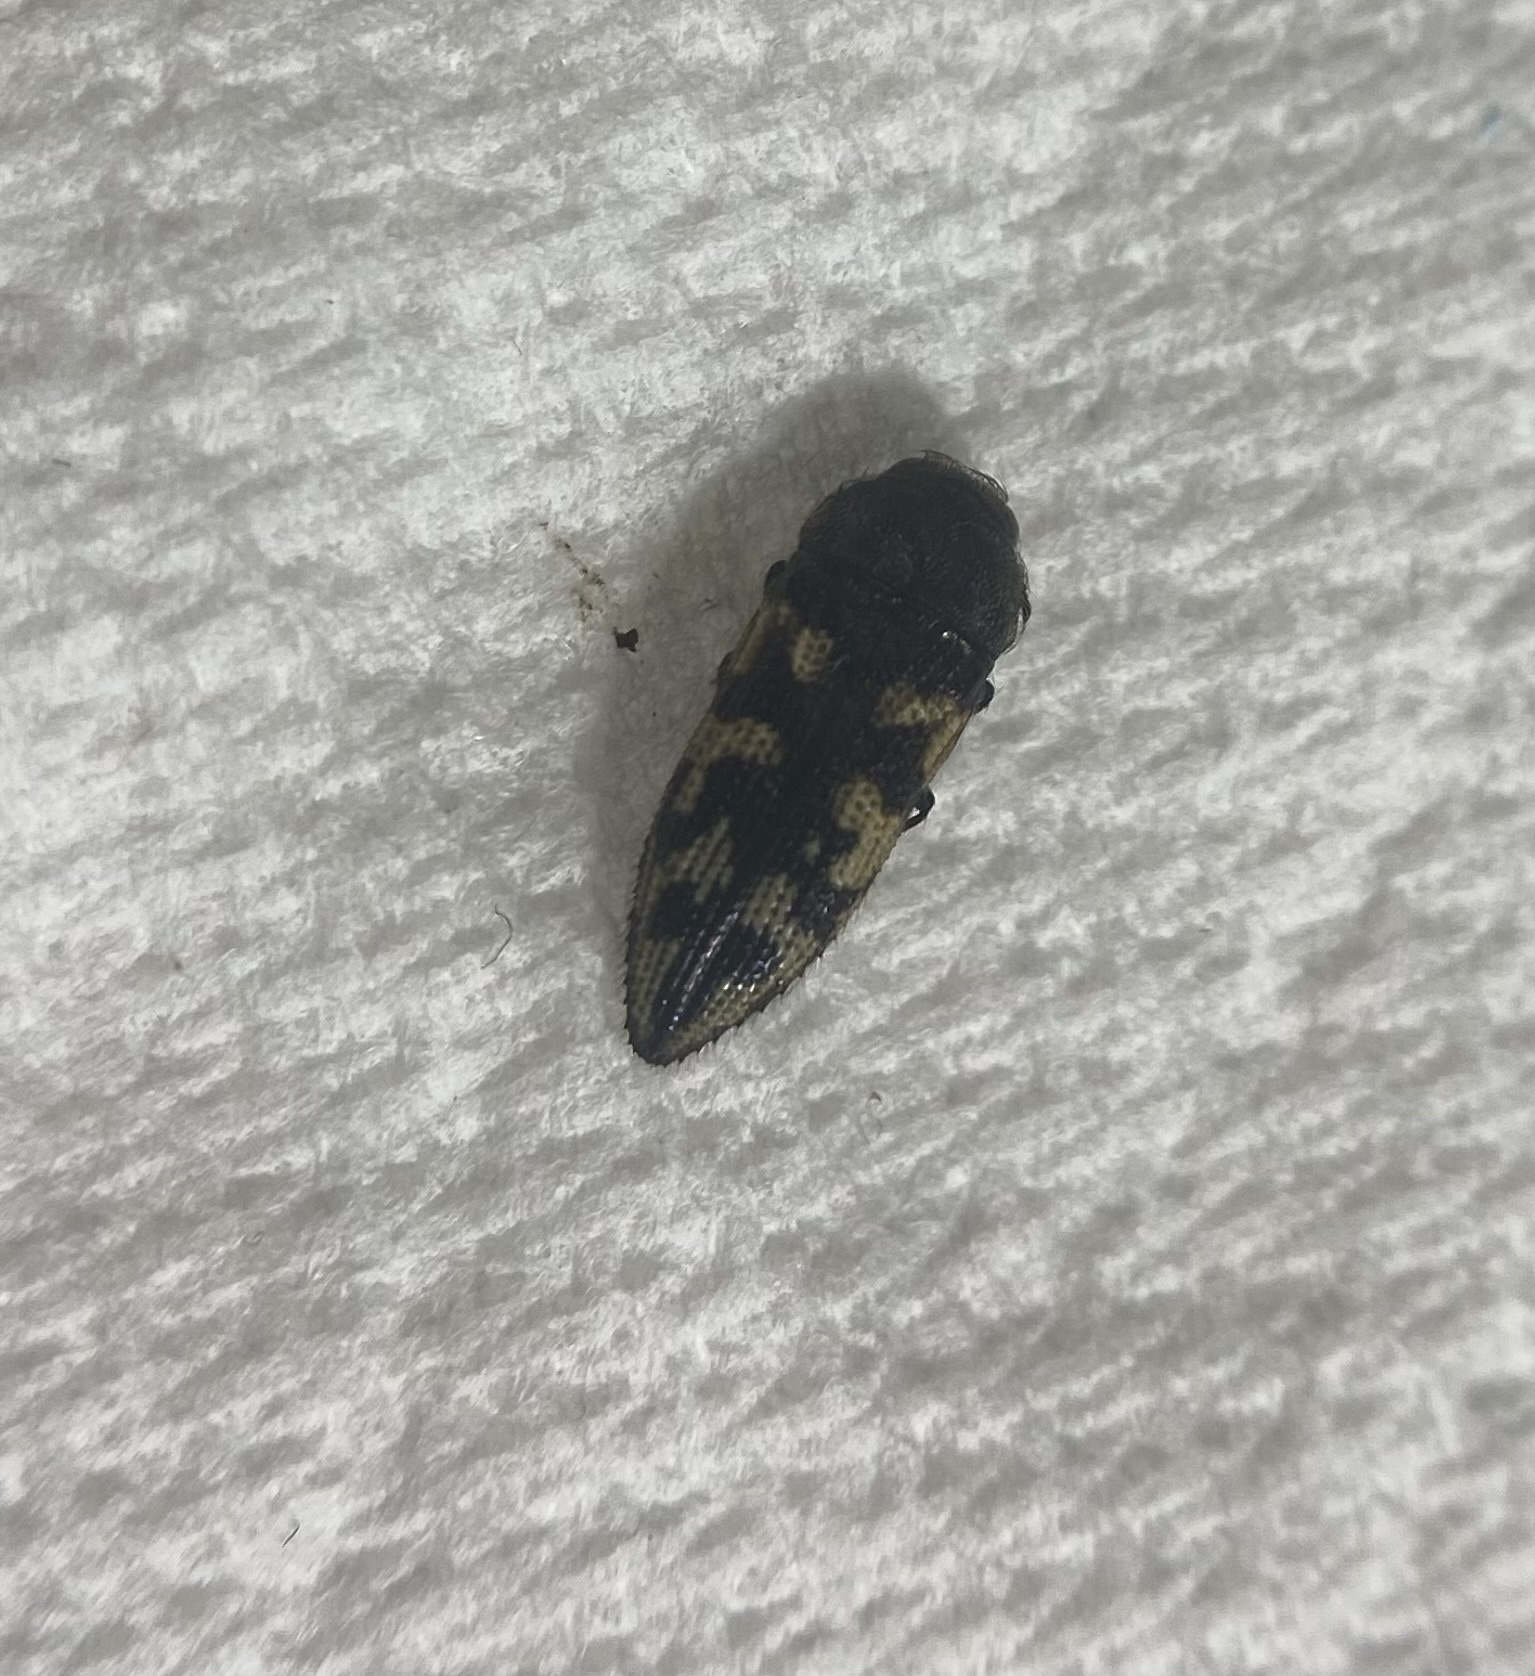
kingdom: Animalia
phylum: Arthropoda
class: Insecta
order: Coleoptera
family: Buprestidae
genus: Acmaeodera
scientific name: Acmaeodera bowditchi
